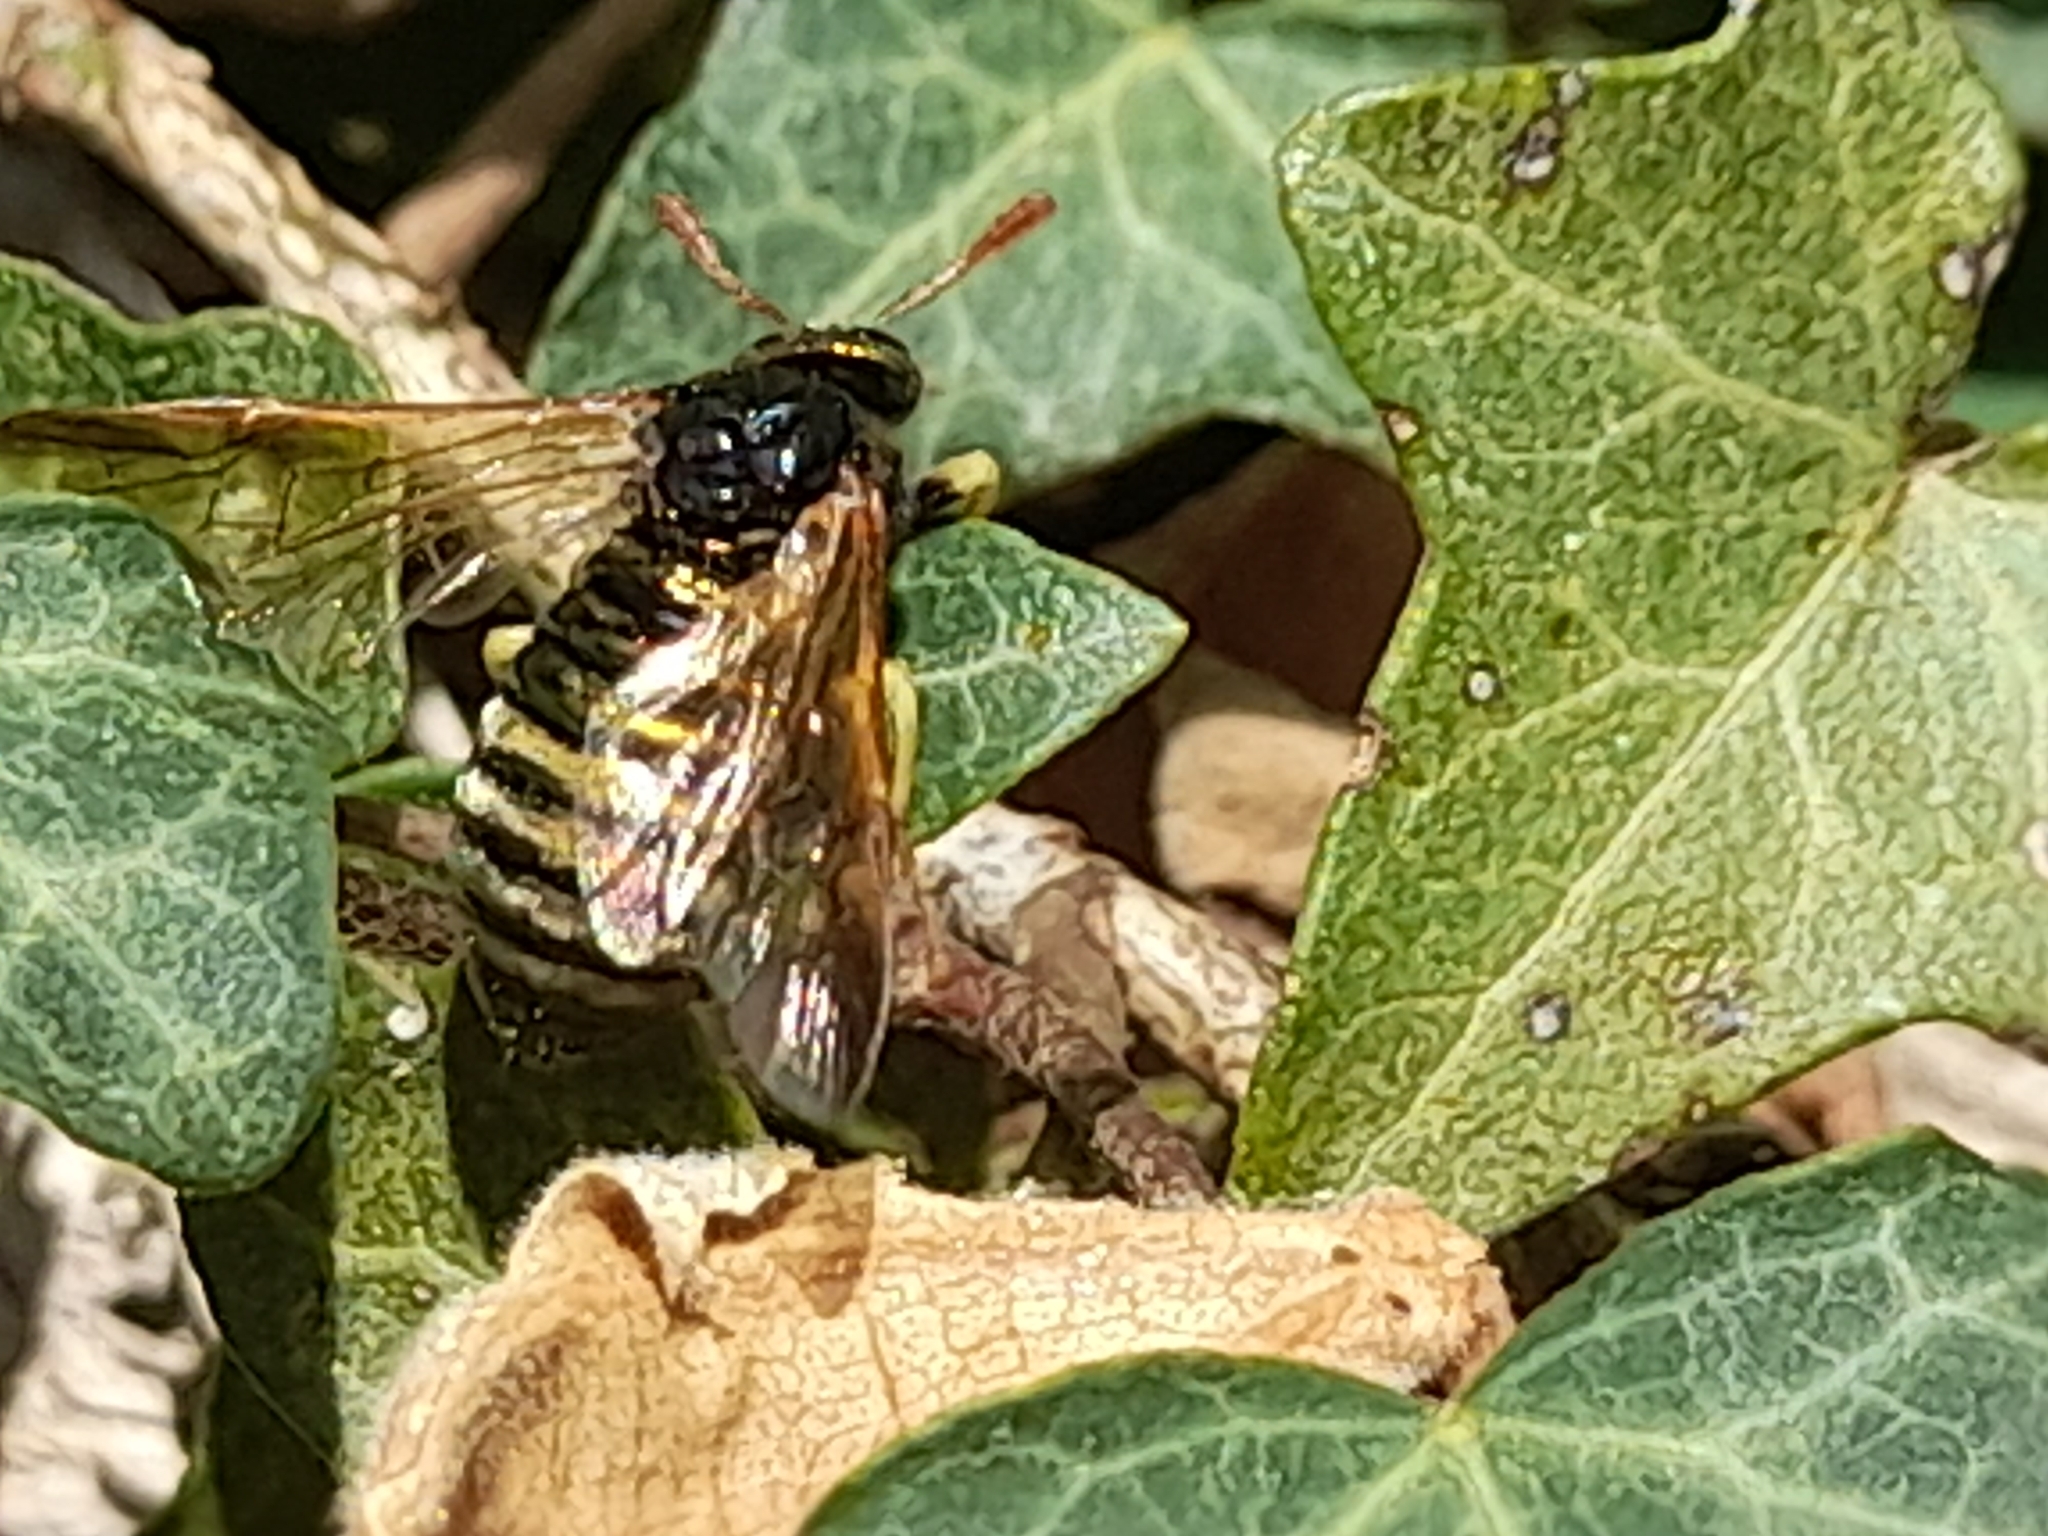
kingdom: Animalia
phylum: Arthropoda
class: Insecta
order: Hymenoptera
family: Cimbicidae
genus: Abia
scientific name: Abia nitens
